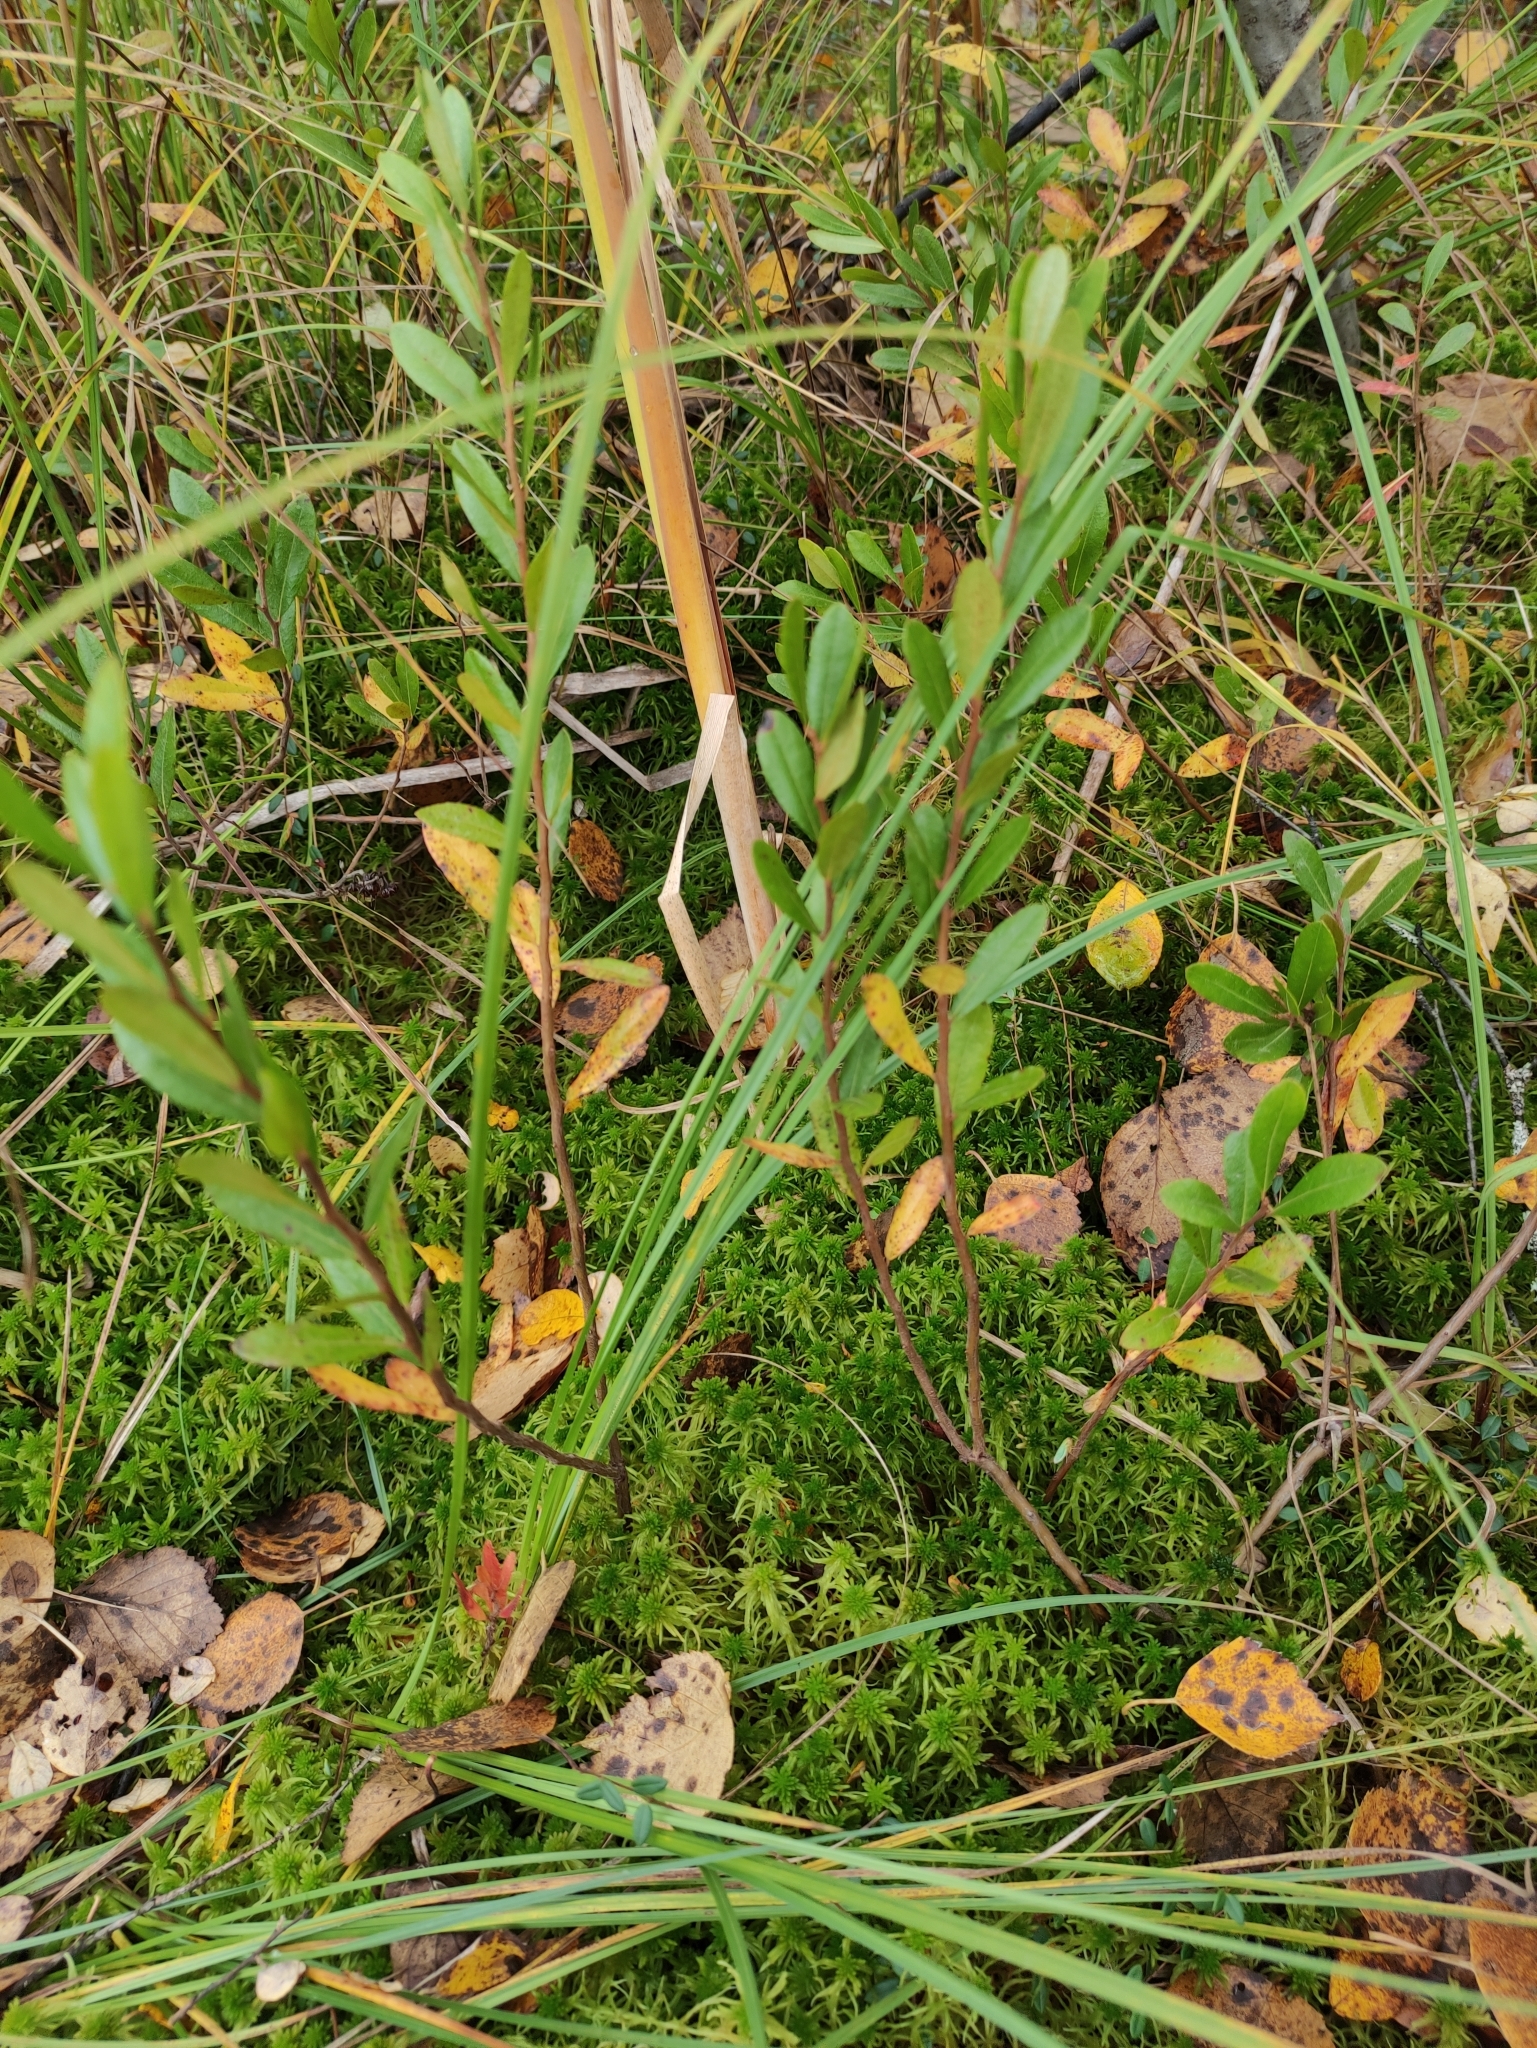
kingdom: Plantae
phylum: Tracheophyta
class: Magnoliopsida
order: Ericales
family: Ericaceae
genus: Chamaedaphne
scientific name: Chamaedaphne calyculata
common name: Leatherleaf
